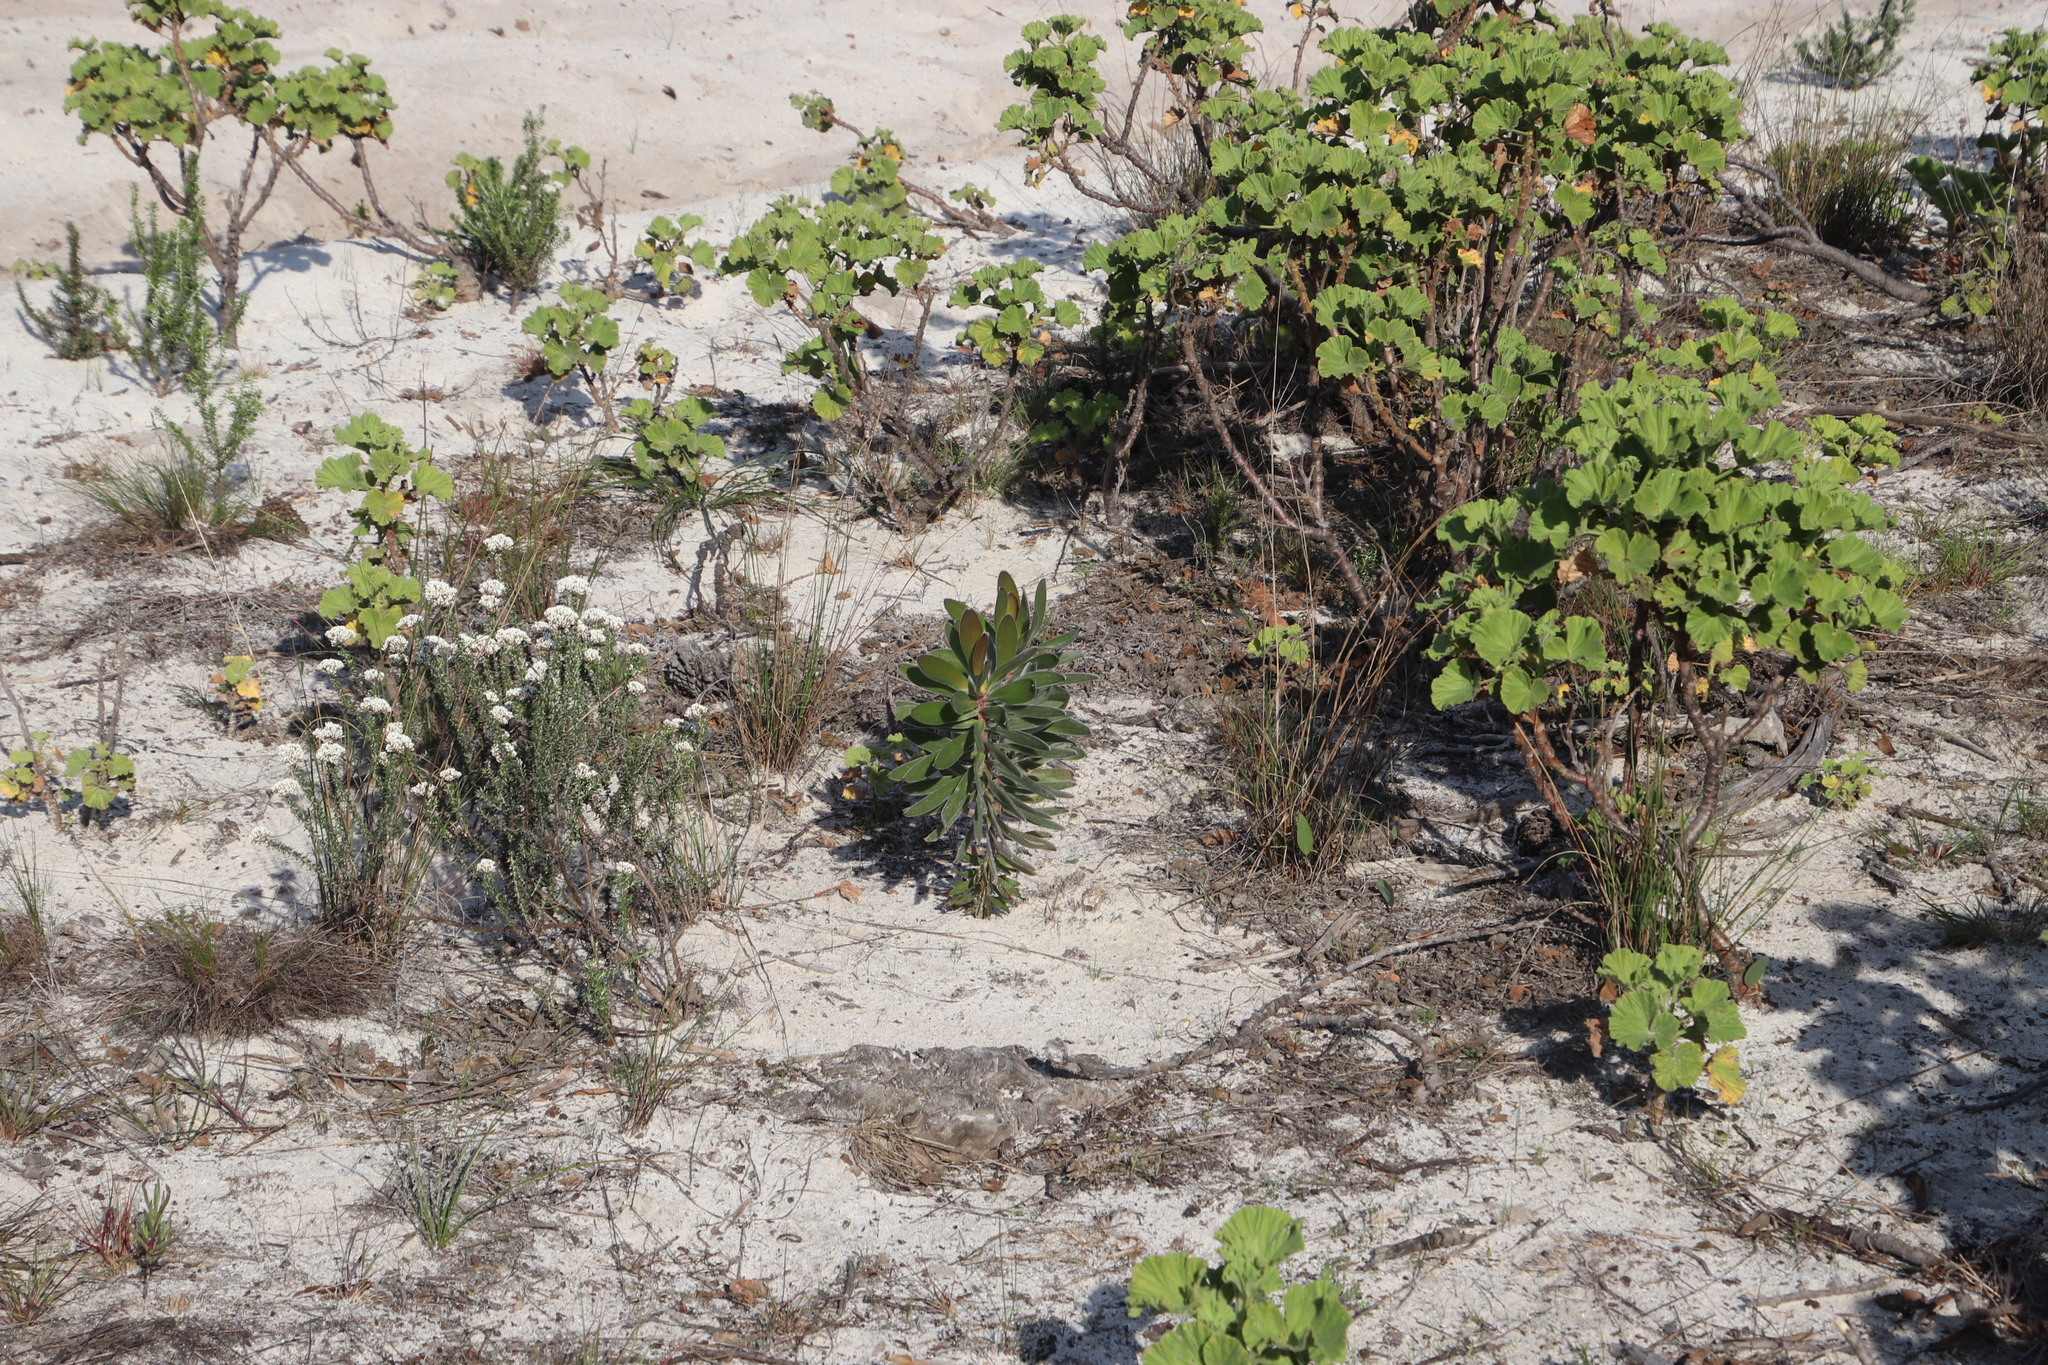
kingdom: Plantae
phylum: Tracheophyta
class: Magnoliopsida
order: Proteales
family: Proteaceae
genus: Leucadendron
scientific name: Leucadendron laureolum
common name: Golden sunshinebush
